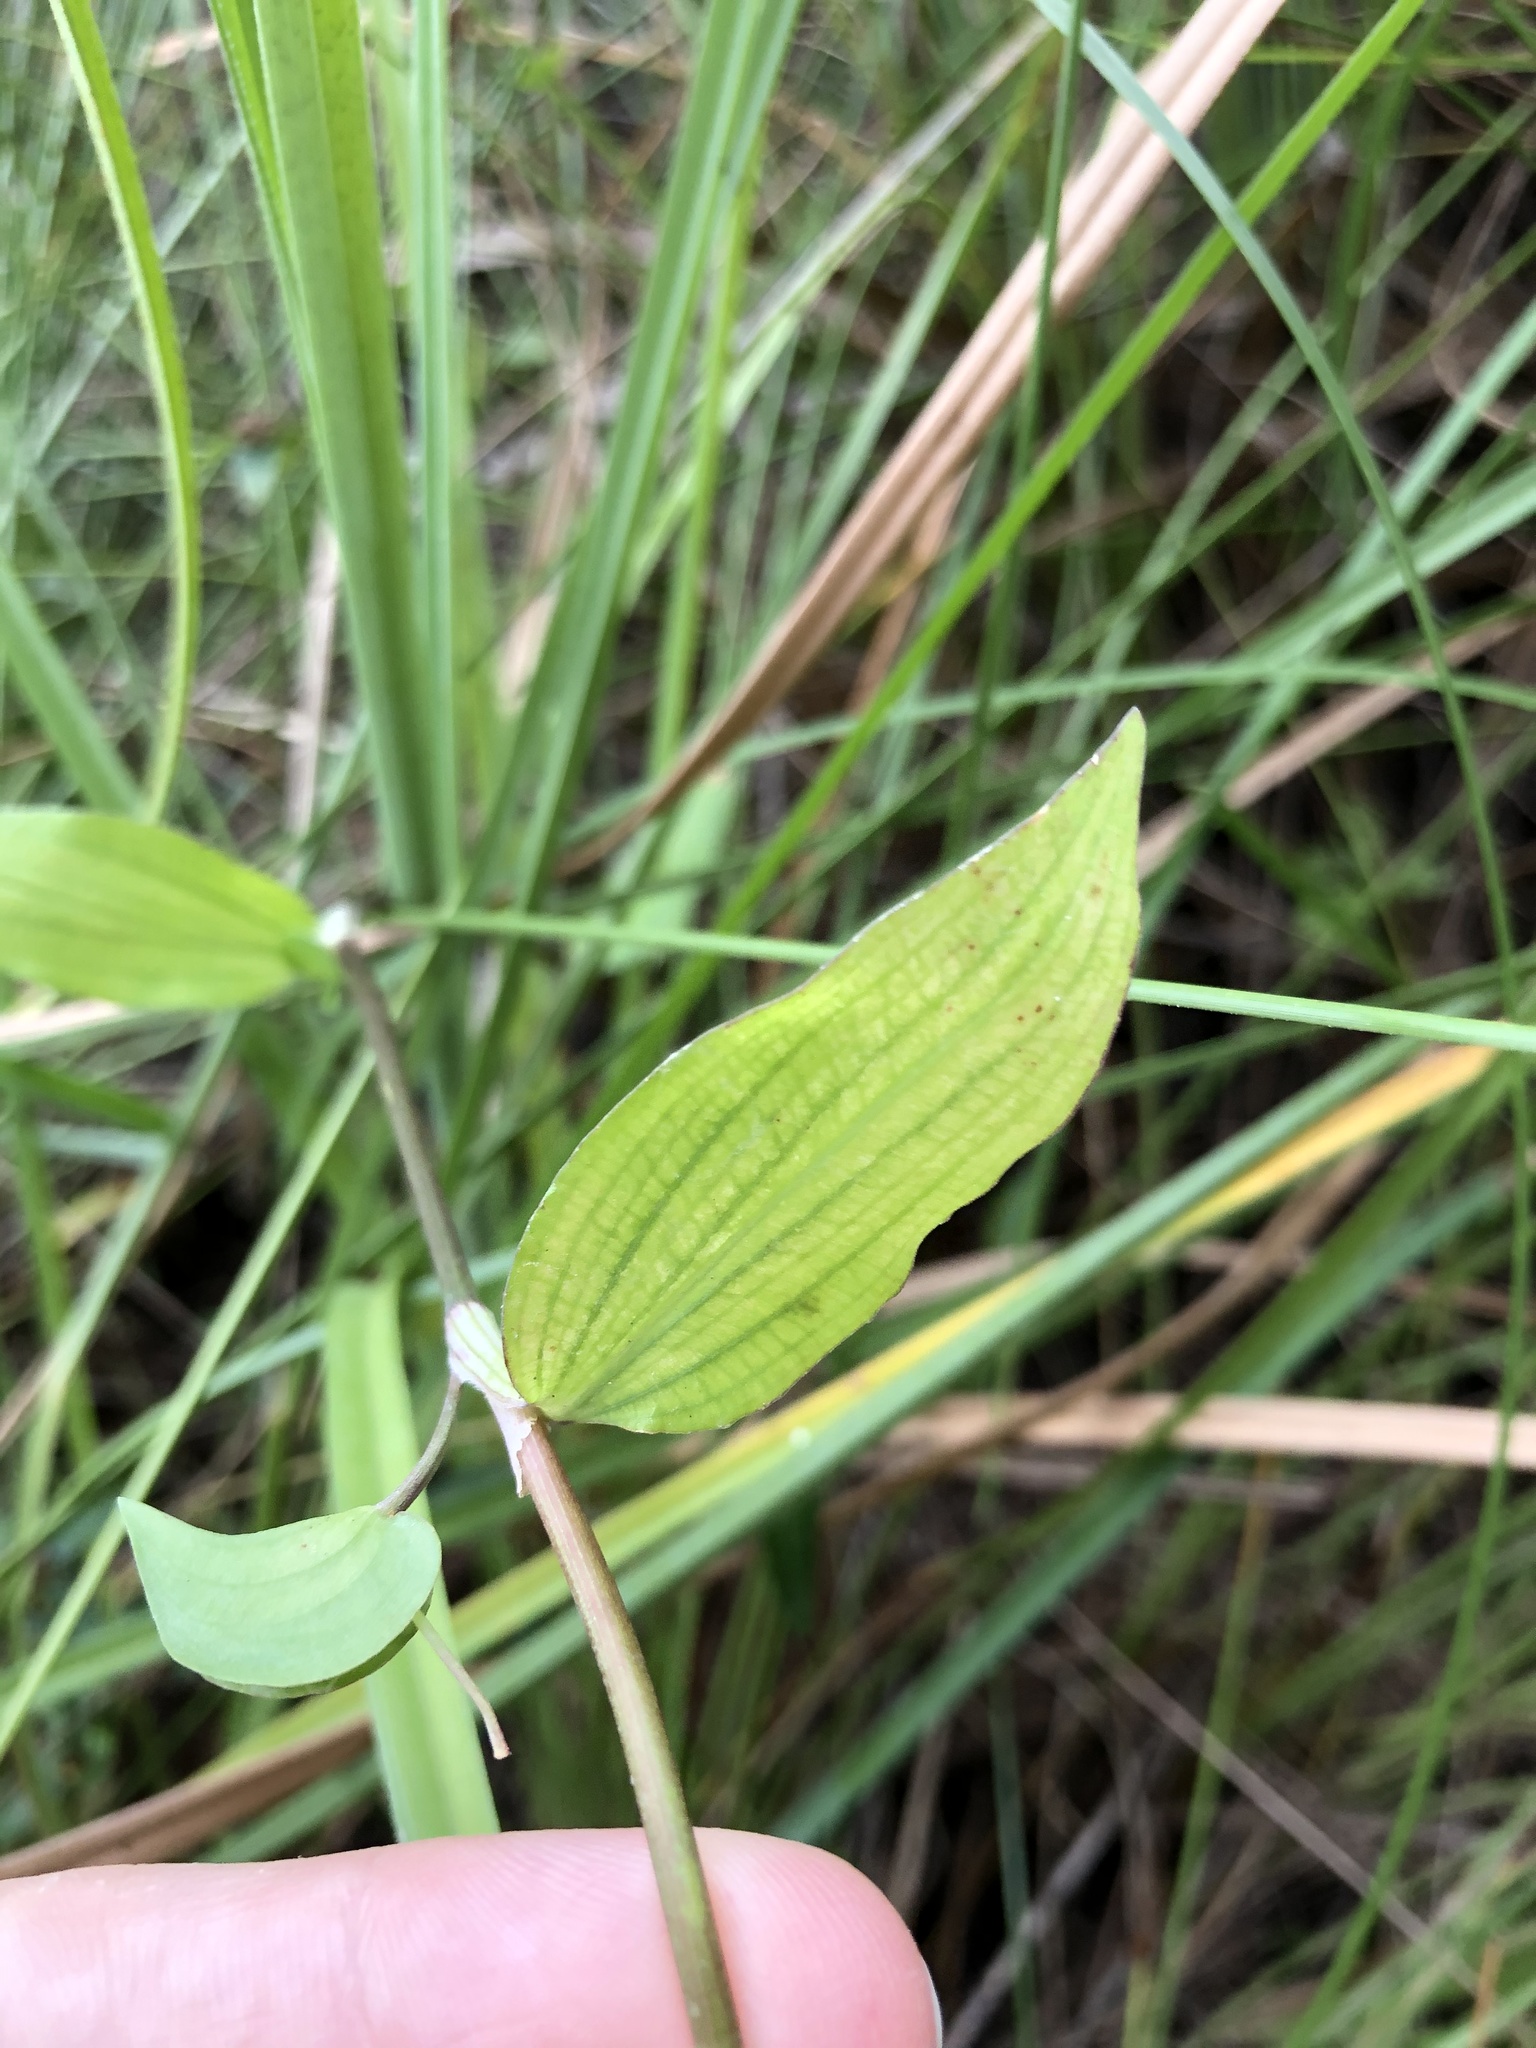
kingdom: Plantae
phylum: Tracheophyta
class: Liliopsida
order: Commelinales
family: Commelinaceae
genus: Commelina
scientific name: Commelina diffusa
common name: Climbing dayflower
